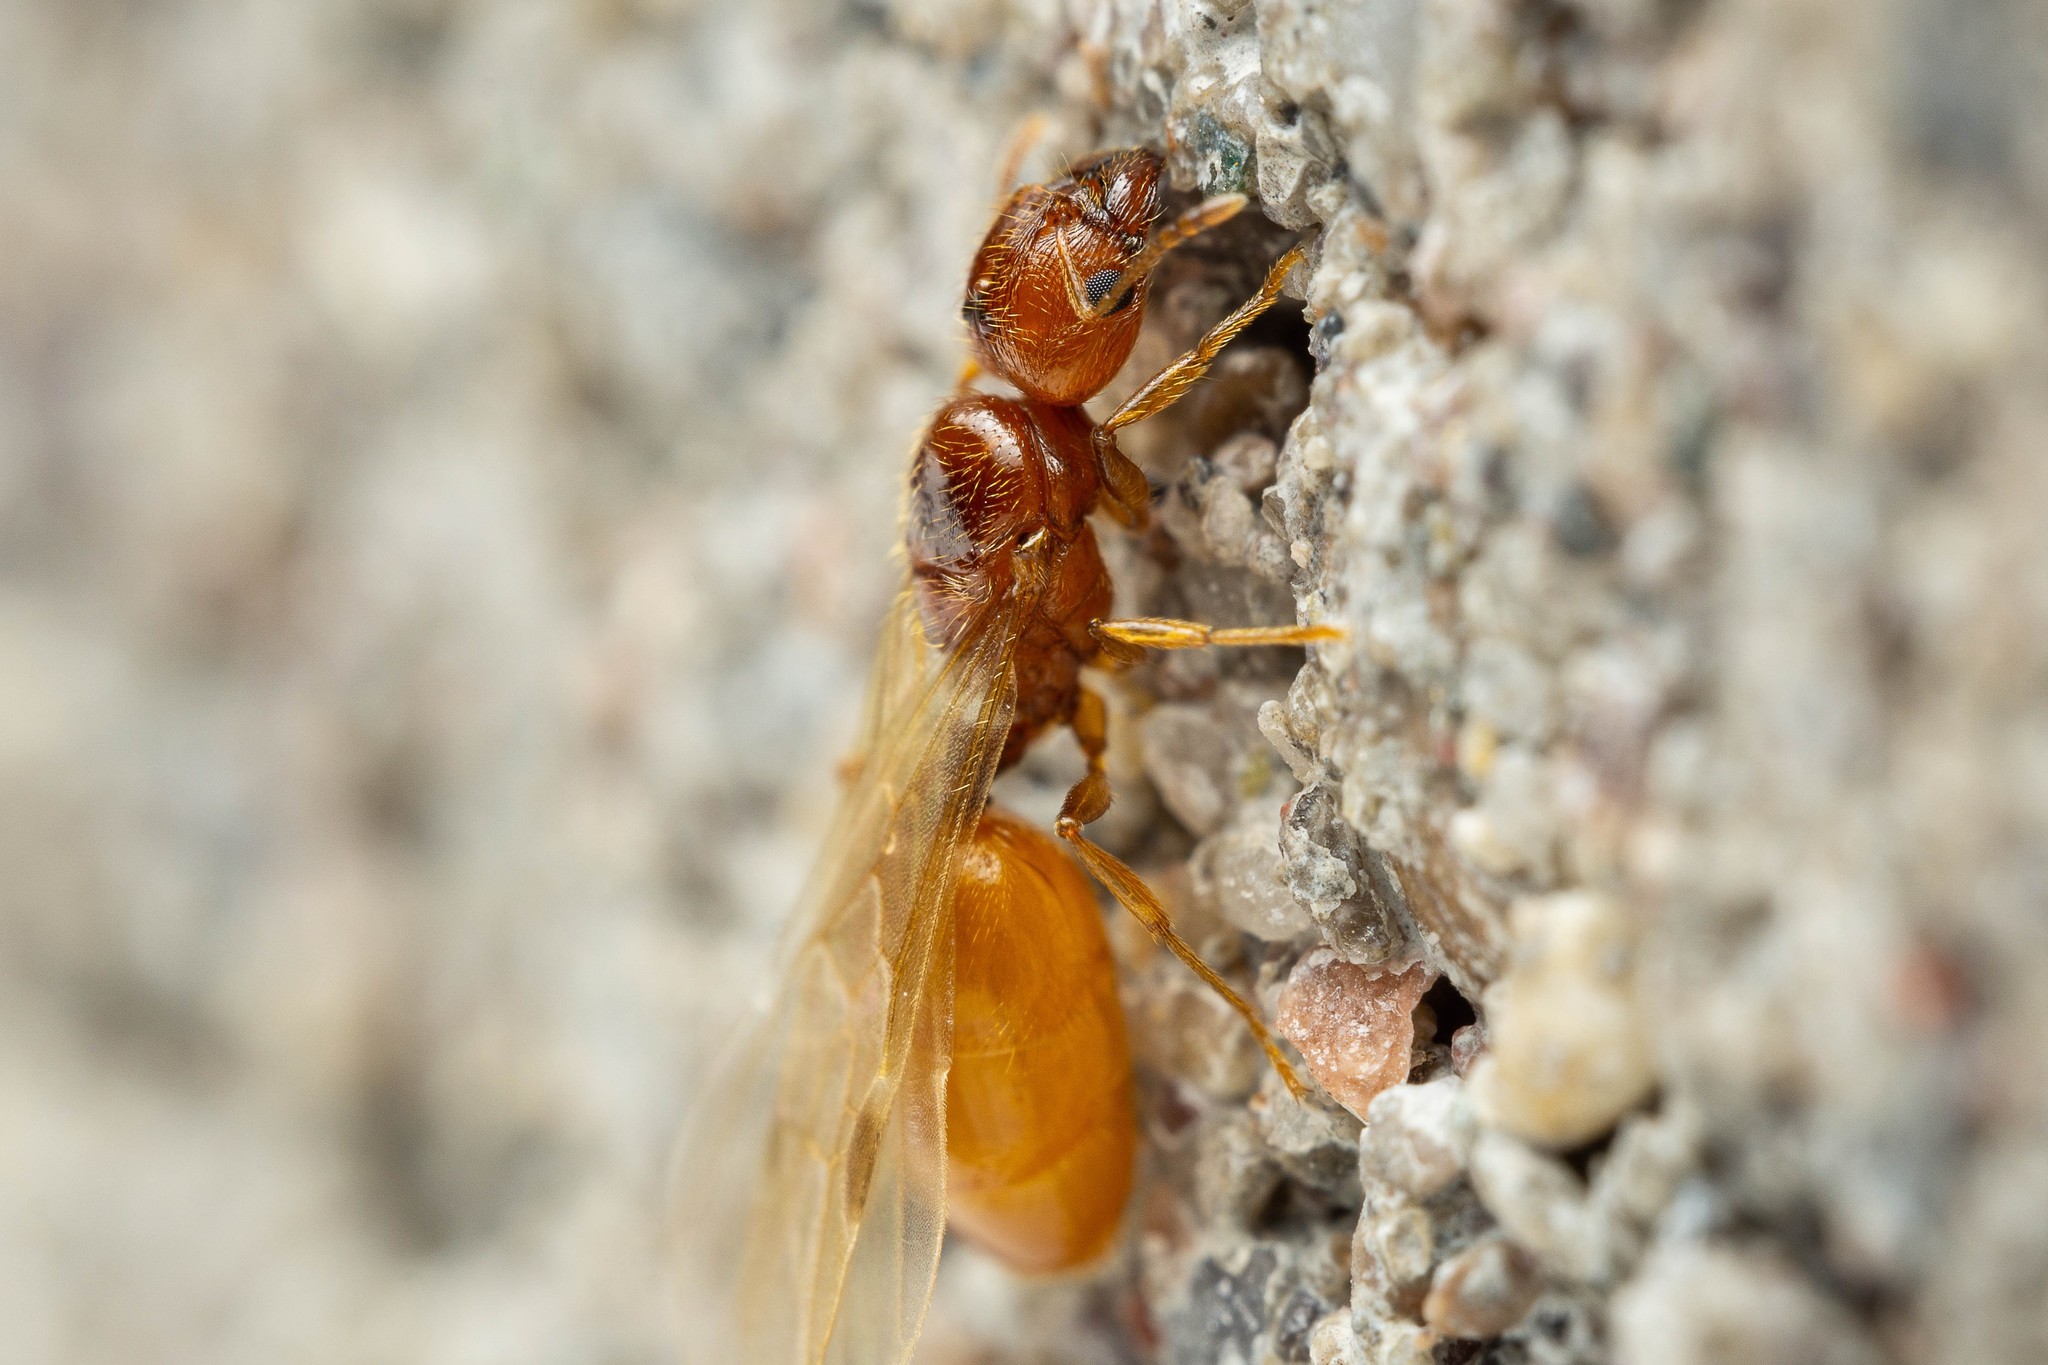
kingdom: Animalia
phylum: Arthropoda
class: Insecta
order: Hymenoptera
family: Formicidae
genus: Pheidole
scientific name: Pheidole cerebrosior
